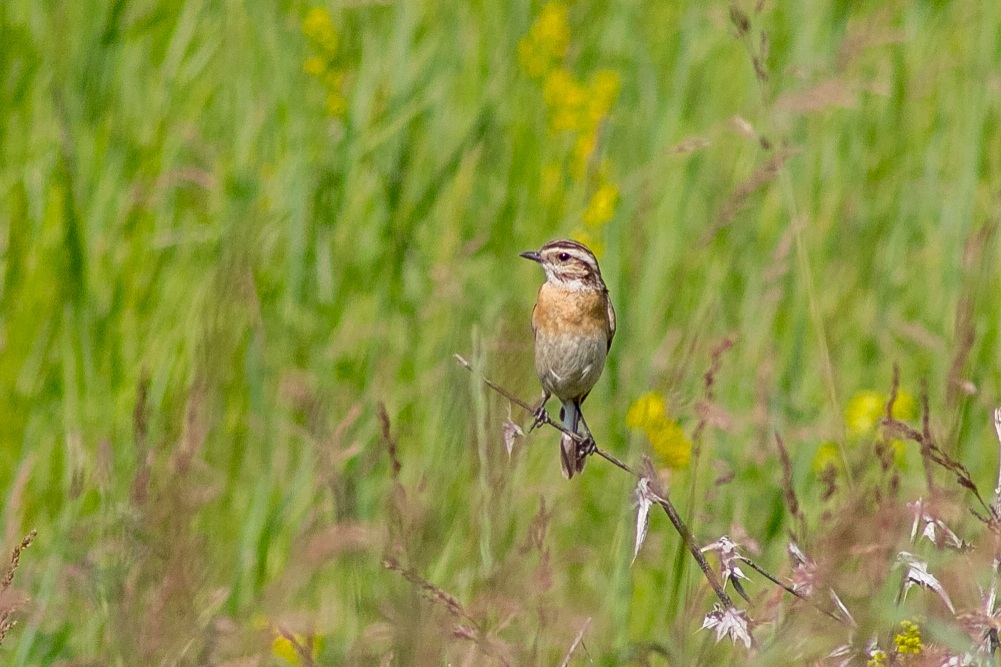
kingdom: Animalia
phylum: Chordata
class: Aves
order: Passeriformes
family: Muscicapidae
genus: Saxicola
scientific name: Saxicola rubetra
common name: Whinchat
